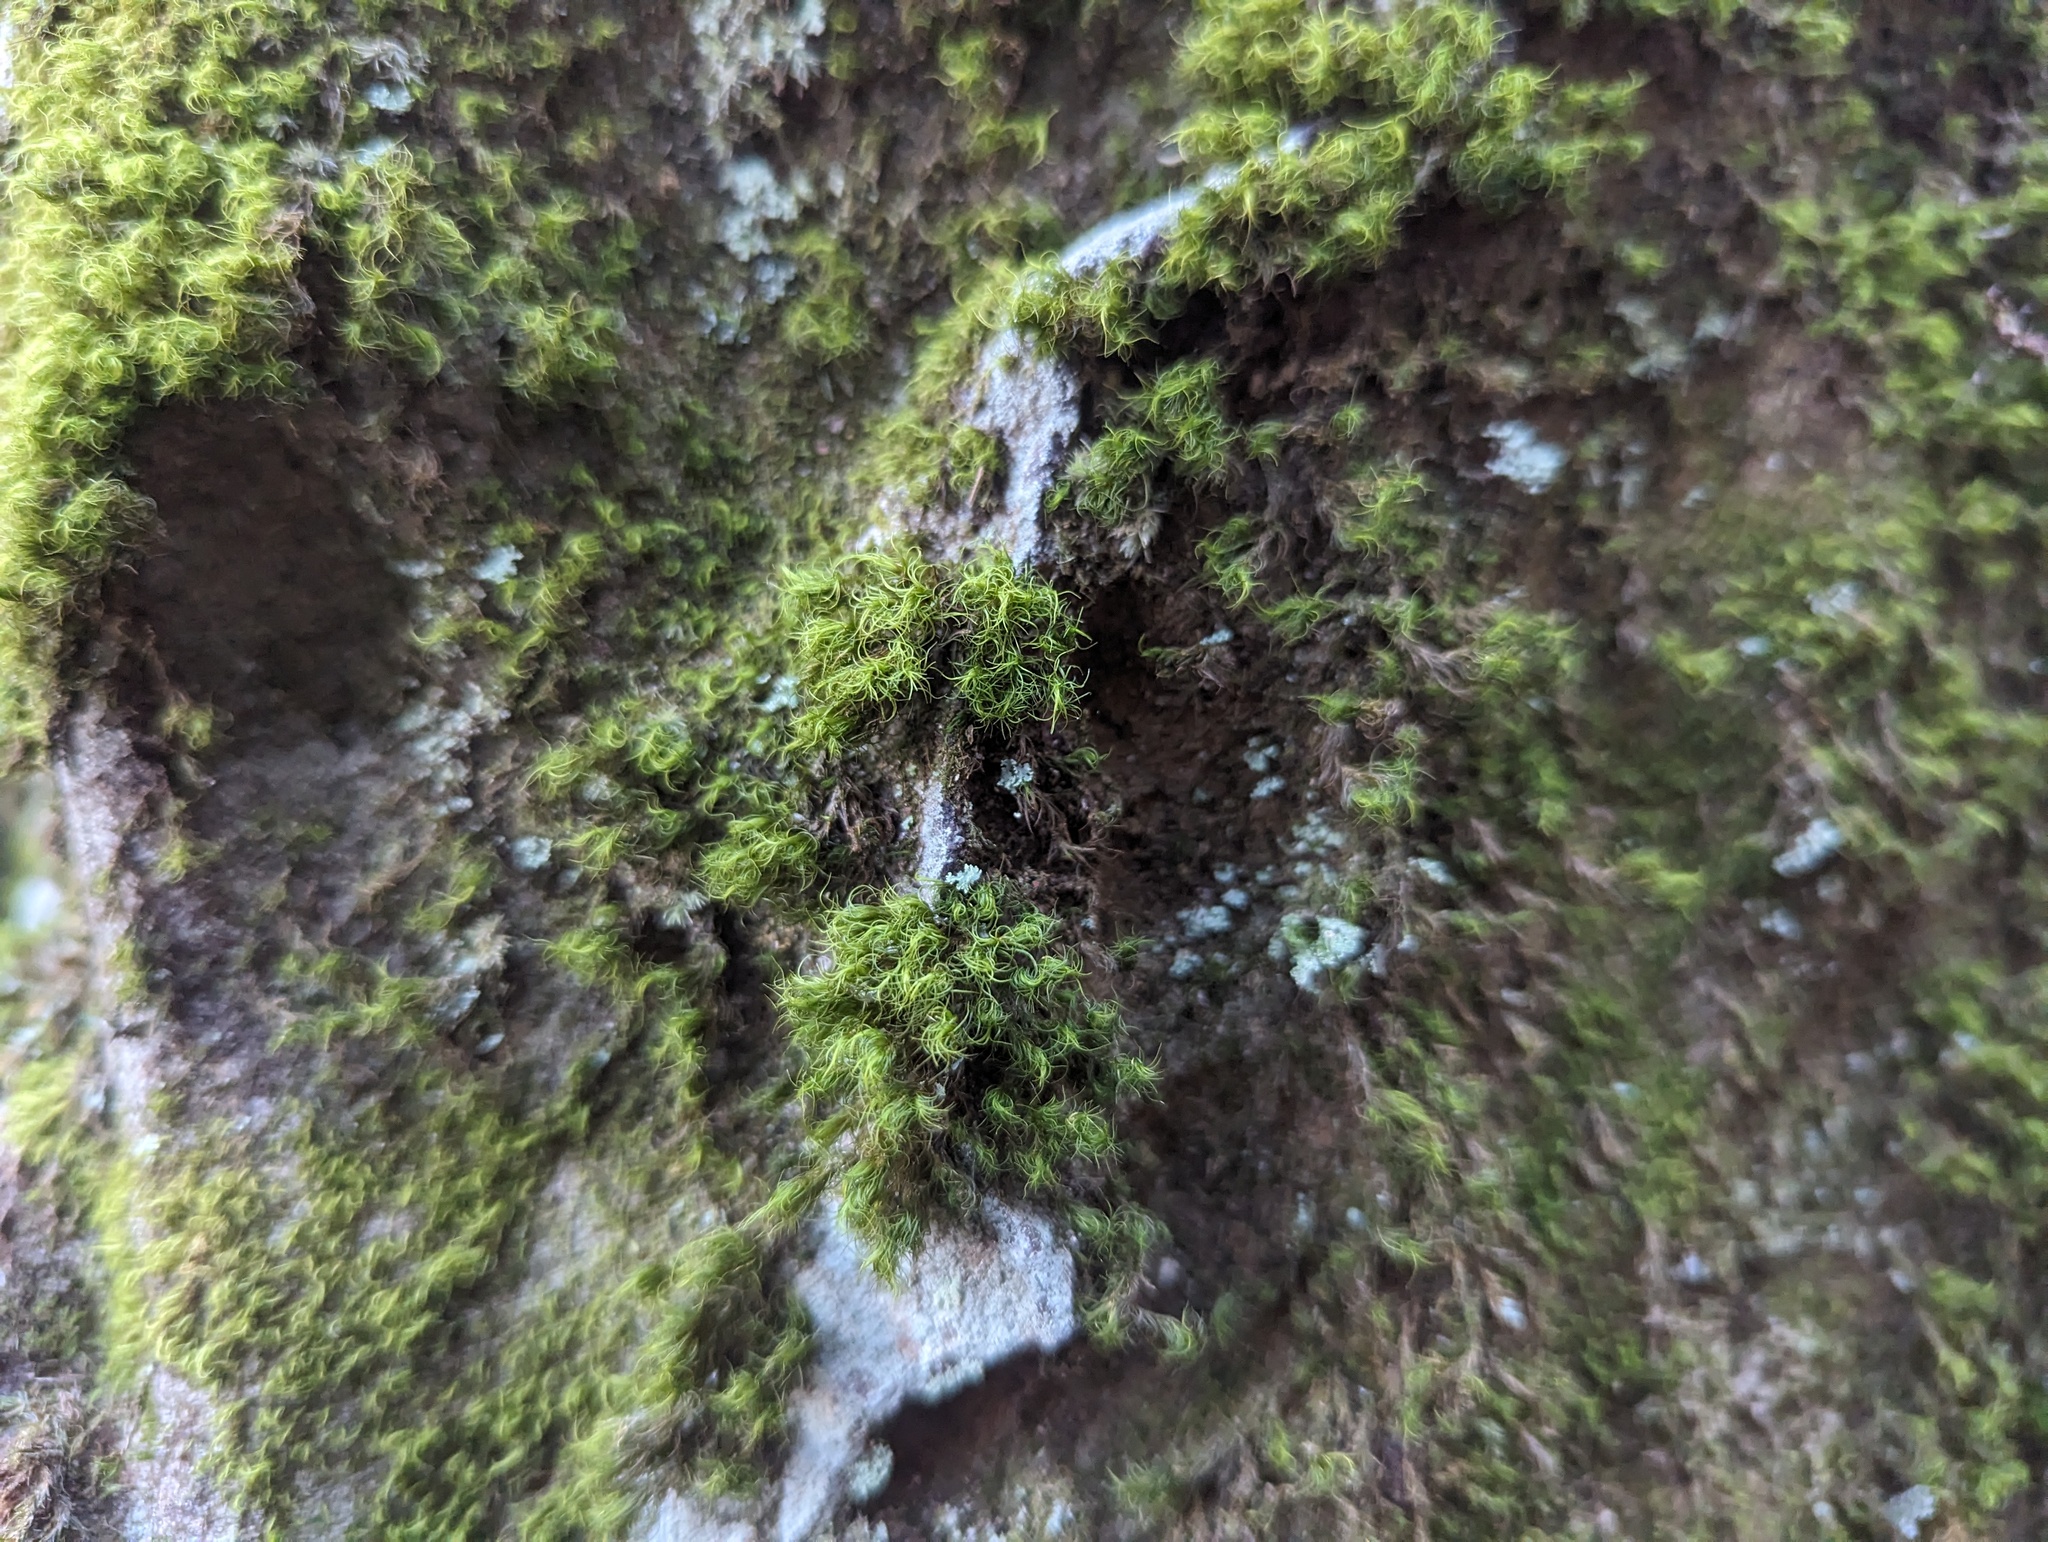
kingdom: Plantae
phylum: Bryophyta
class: Bryopsida
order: Dicranales
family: Dicranaceae
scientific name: Dicranaceae
